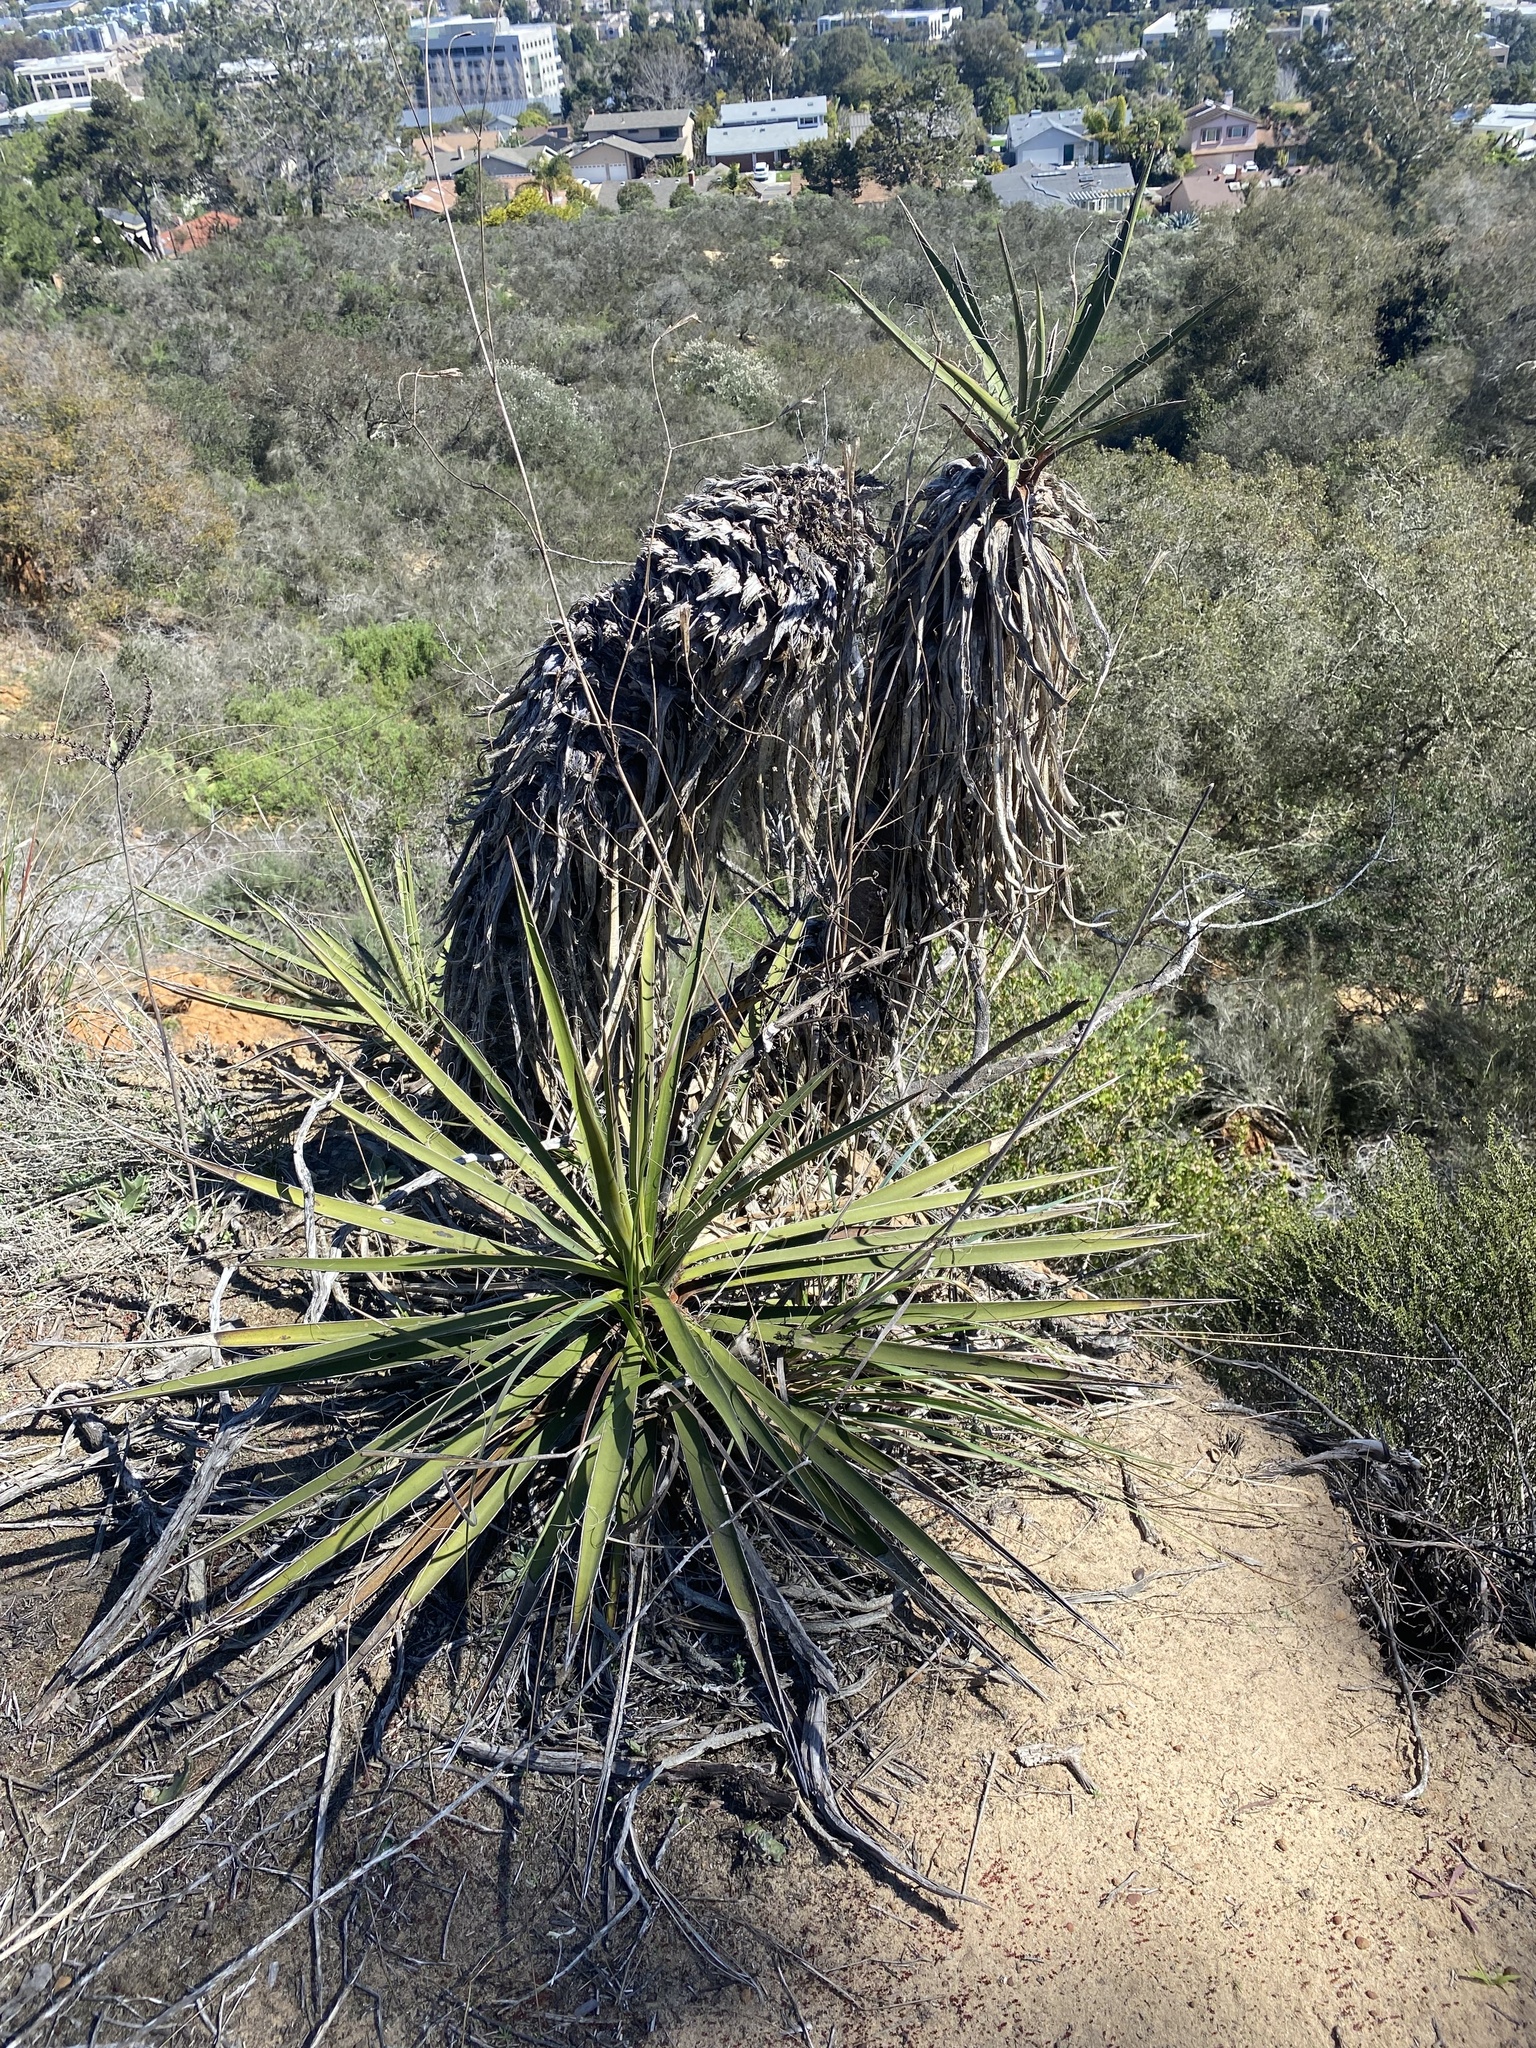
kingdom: Plantae
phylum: Tracheophyta
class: Liliopsida
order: Asparagales
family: Asparagaceae
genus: Yucca
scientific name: Yucca schidigera
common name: Mojave yucca
